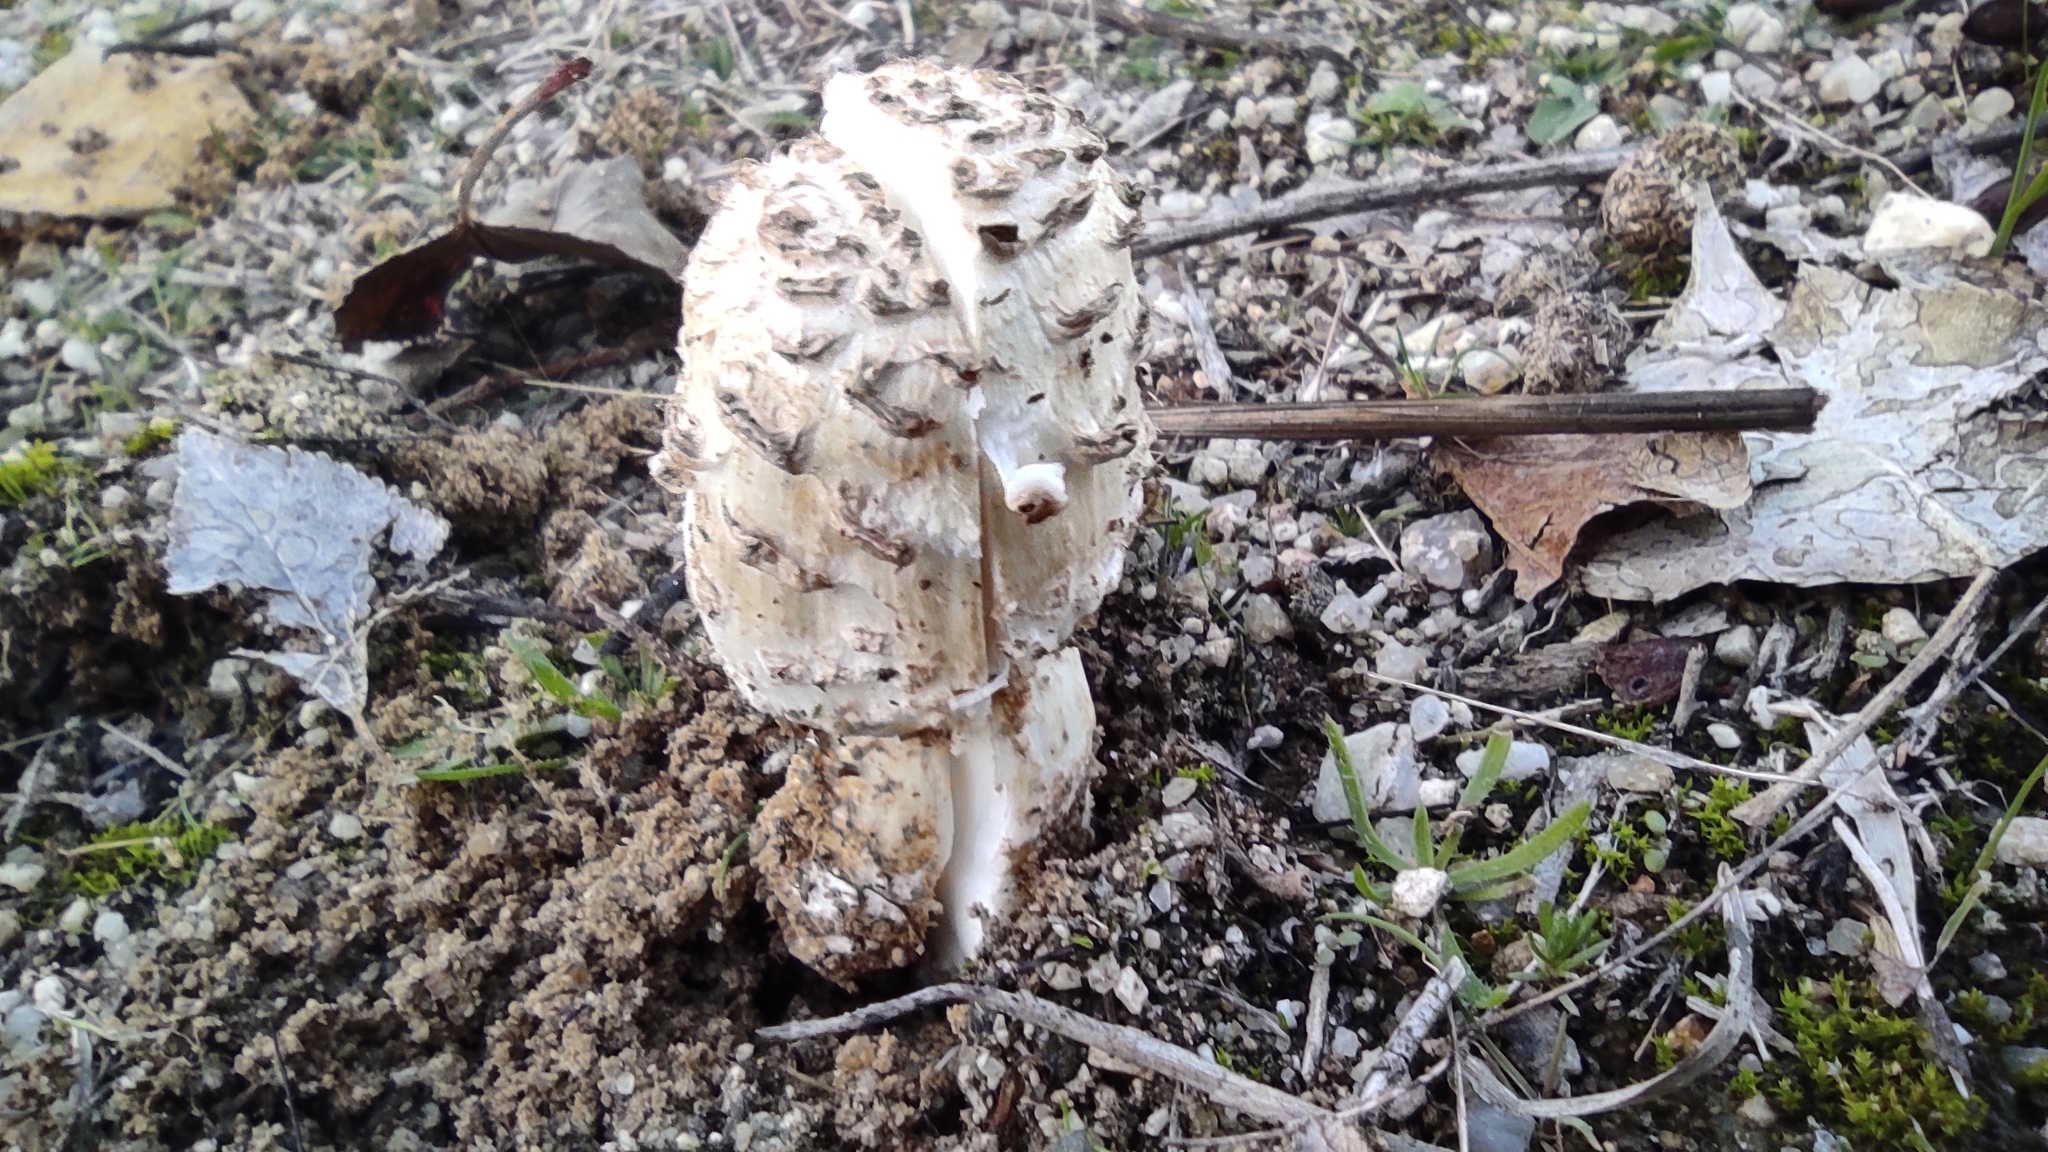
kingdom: Fungi
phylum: Basidiomycota
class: Agaricomycetes
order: Agaricales
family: Agaricaceae
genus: Coprinus
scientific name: Coprinus comatus
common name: Lawyer's wig
